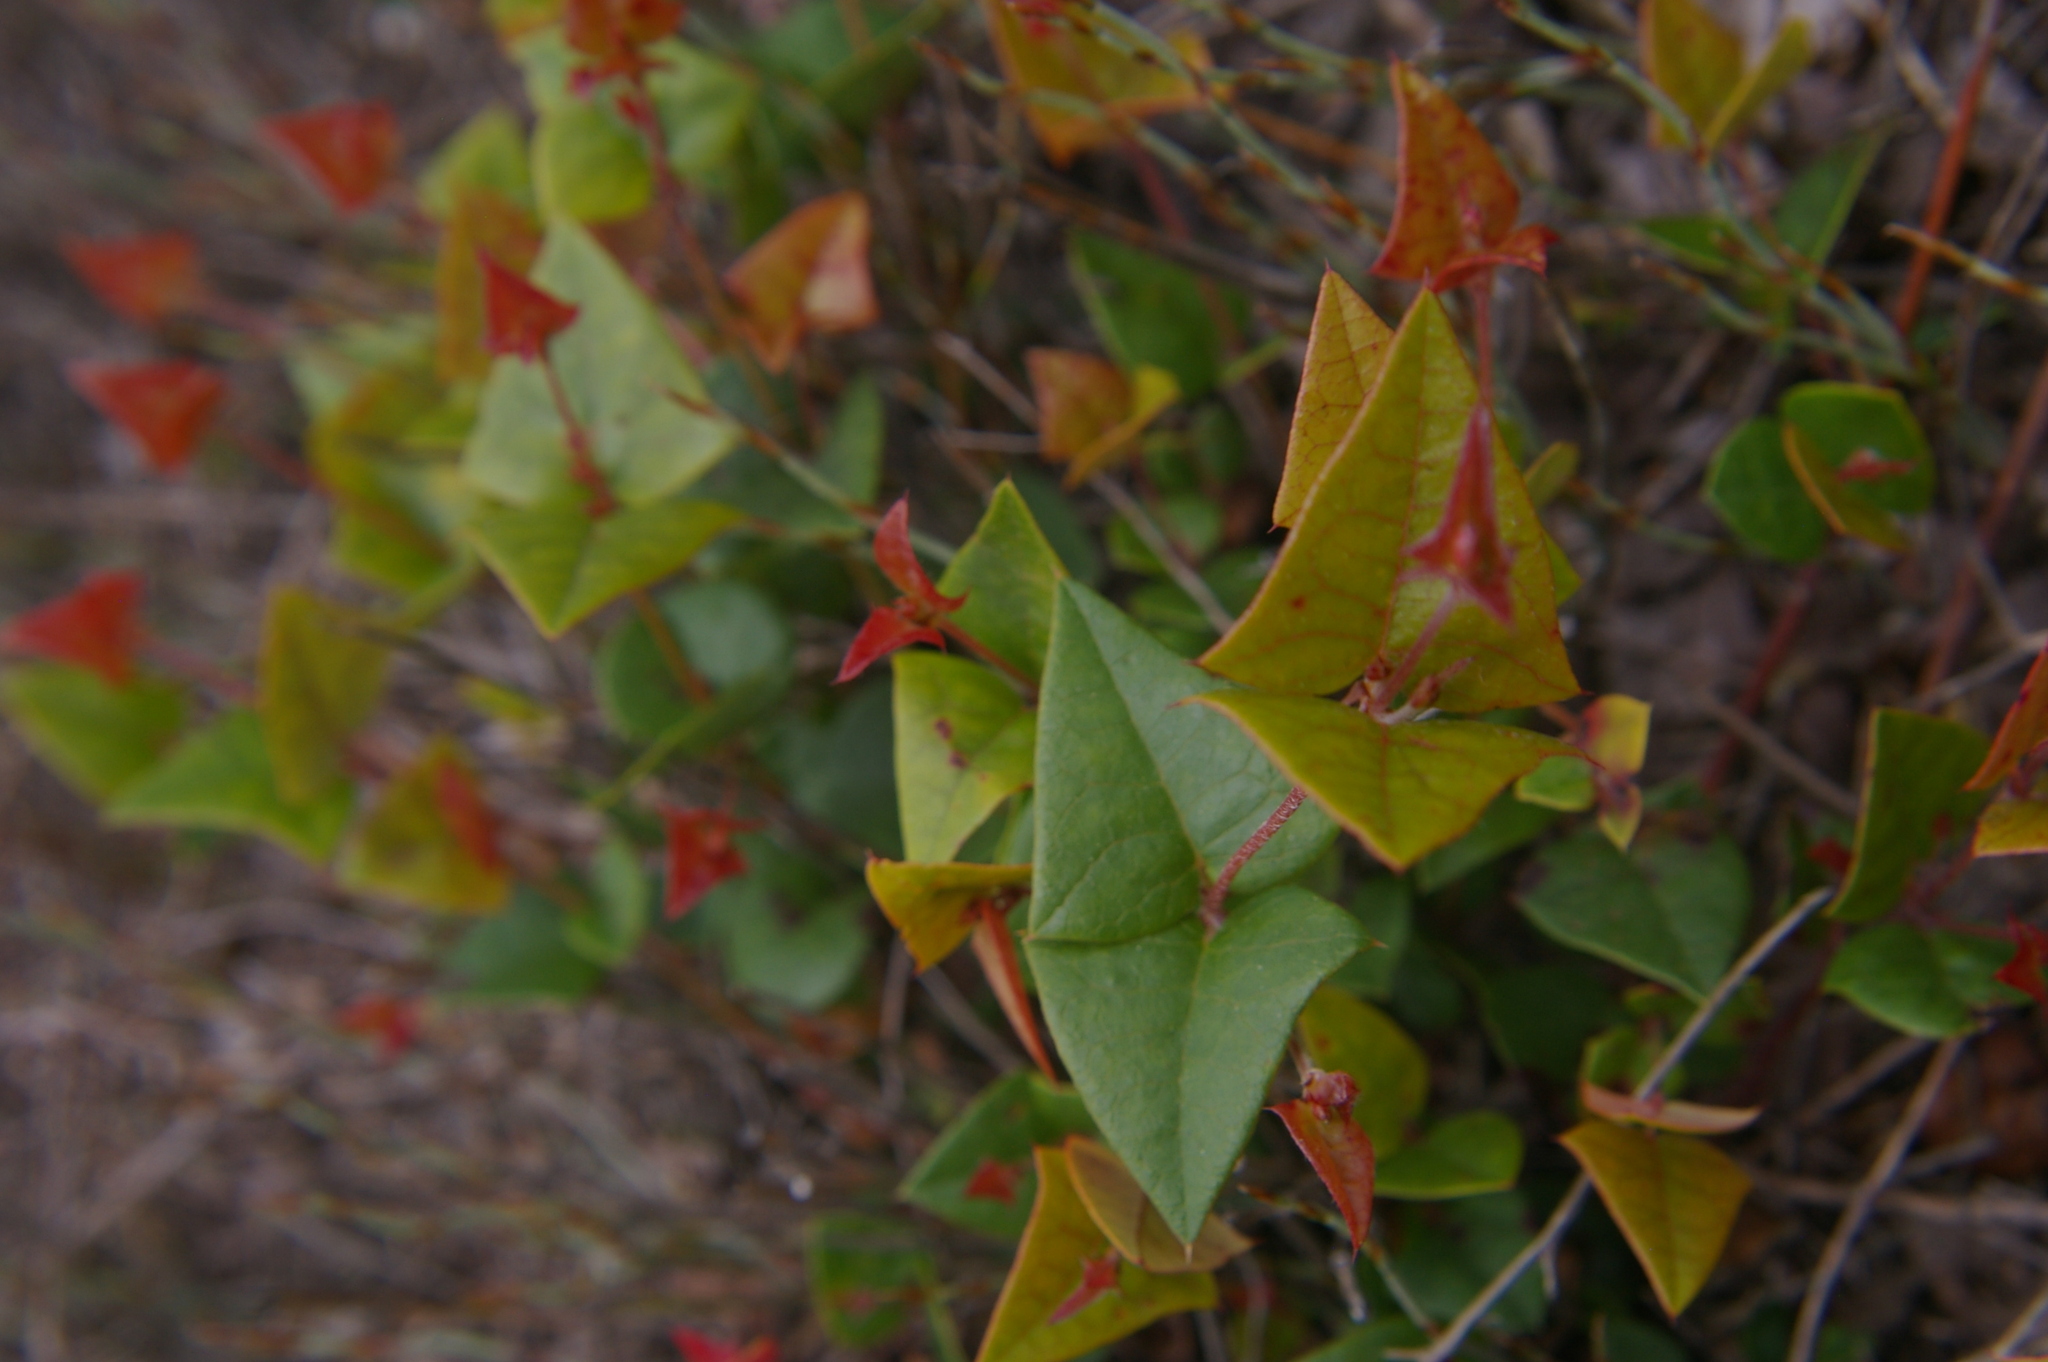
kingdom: Plantae
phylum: Tracheophyta
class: Magnoliopsida
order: Fabales
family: Fabaceae
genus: Platylobium
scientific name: Platylobium obtusangulum
